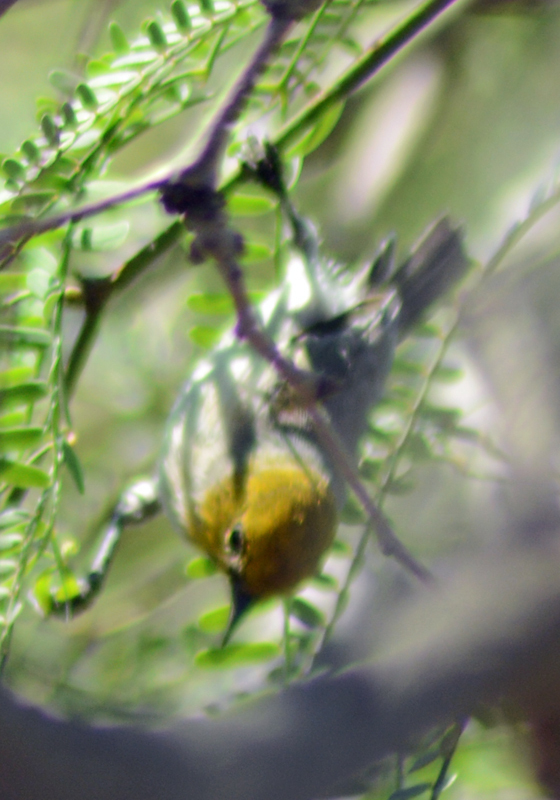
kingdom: Animalia
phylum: Chordata
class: Aves
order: Passeriformes
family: Remizidae
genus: Auriparus
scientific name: Auriparus flaviceps
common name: Verdin
